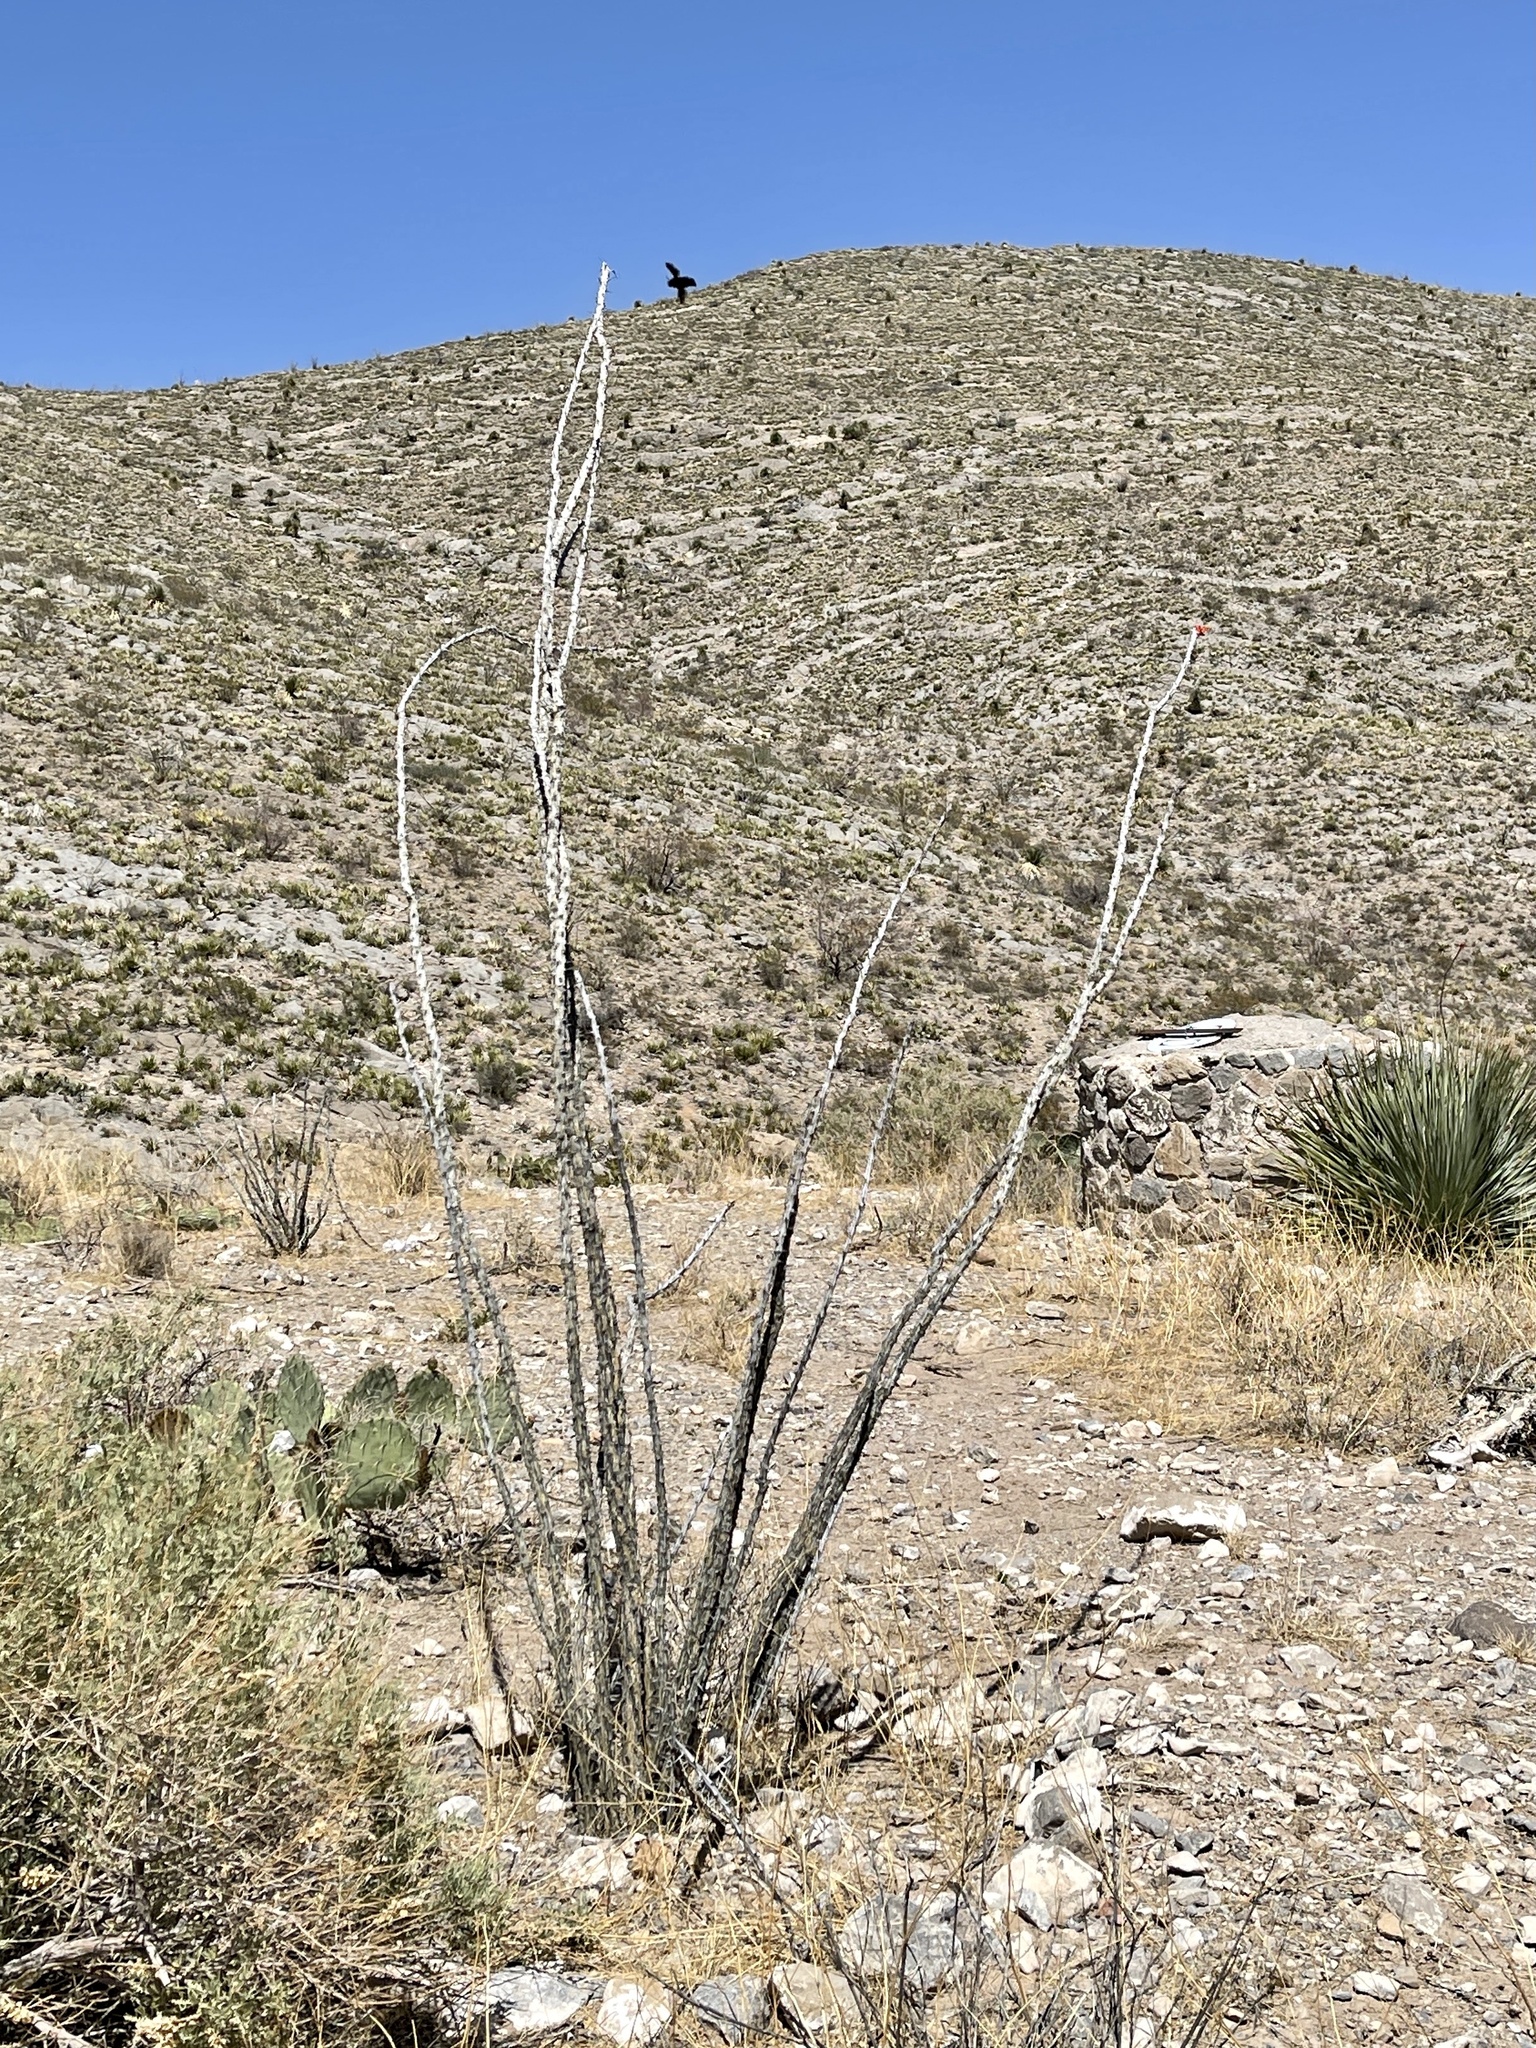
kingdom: Plantae
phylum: Tracheophyta
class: Magnoliopsida
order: Ericales
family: Fouquieriaceae
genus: Fouquieria
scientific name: Fouquieria splendens
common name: Vine-cactus
